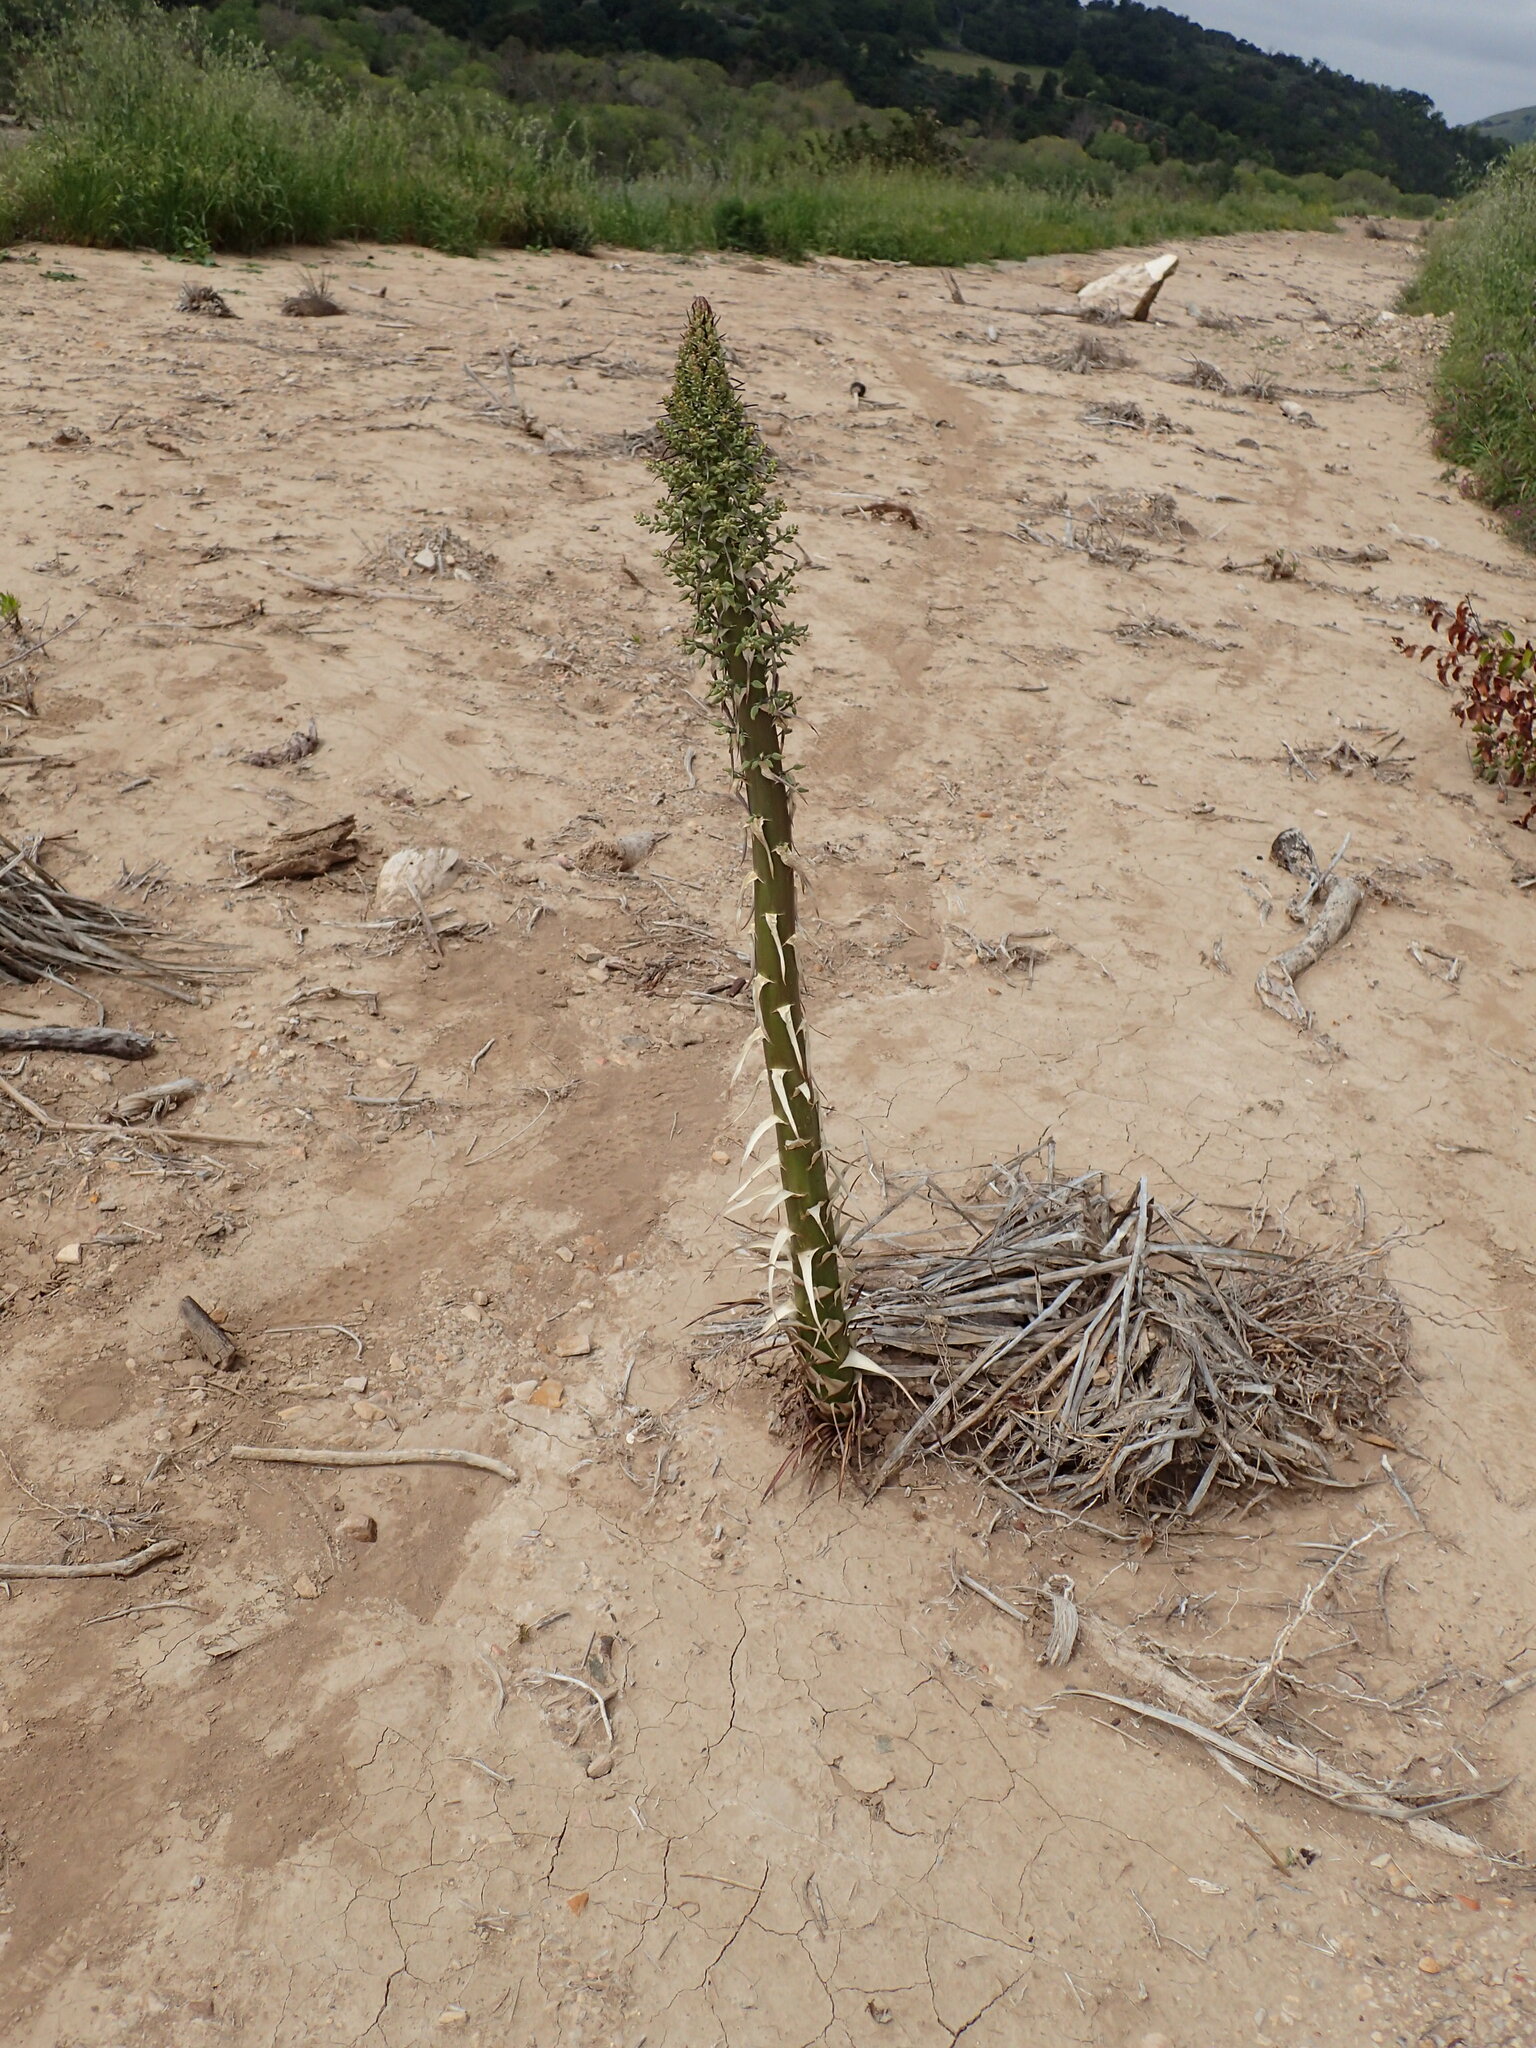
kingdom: Plantae
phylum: Tracheophyta
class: Liliopsida
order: Asparagales
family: Asparagaceae
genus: Hesperoyucca
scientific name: Hesperoyucca whipplei
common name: Our lord's-candle
